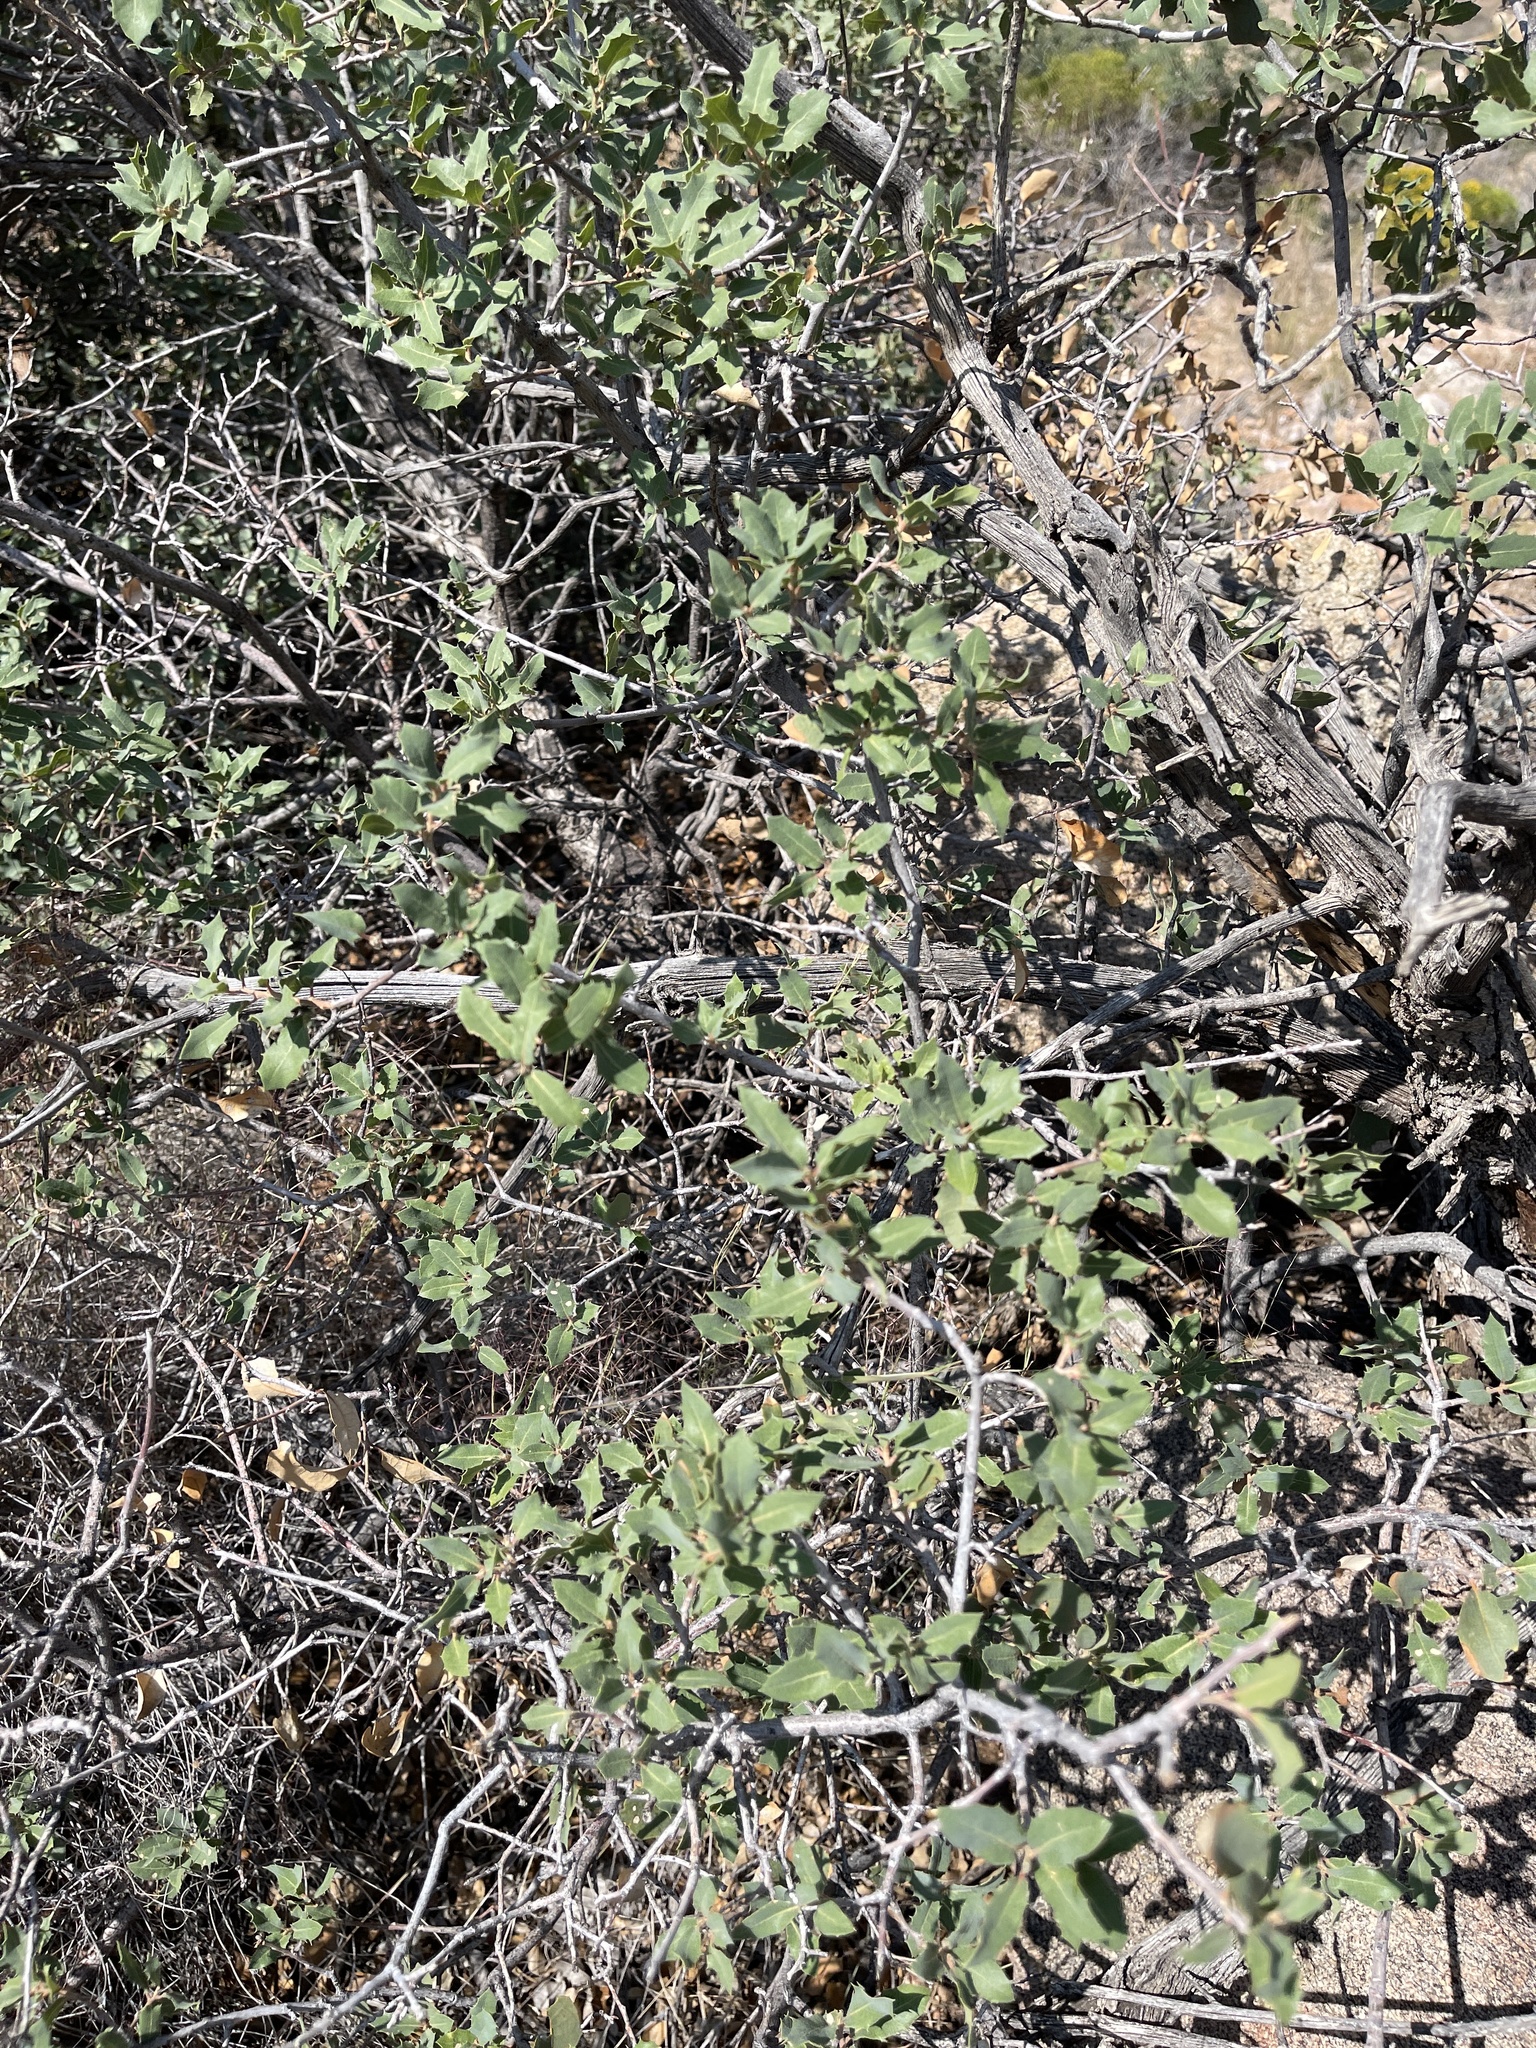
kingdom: Plantae
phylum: Tracheophyta
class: Magnoliopsida
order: Fagales
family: Fagaceae
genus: Quercus
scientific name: Quercus turbinella
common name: Sonoran scrub oak
